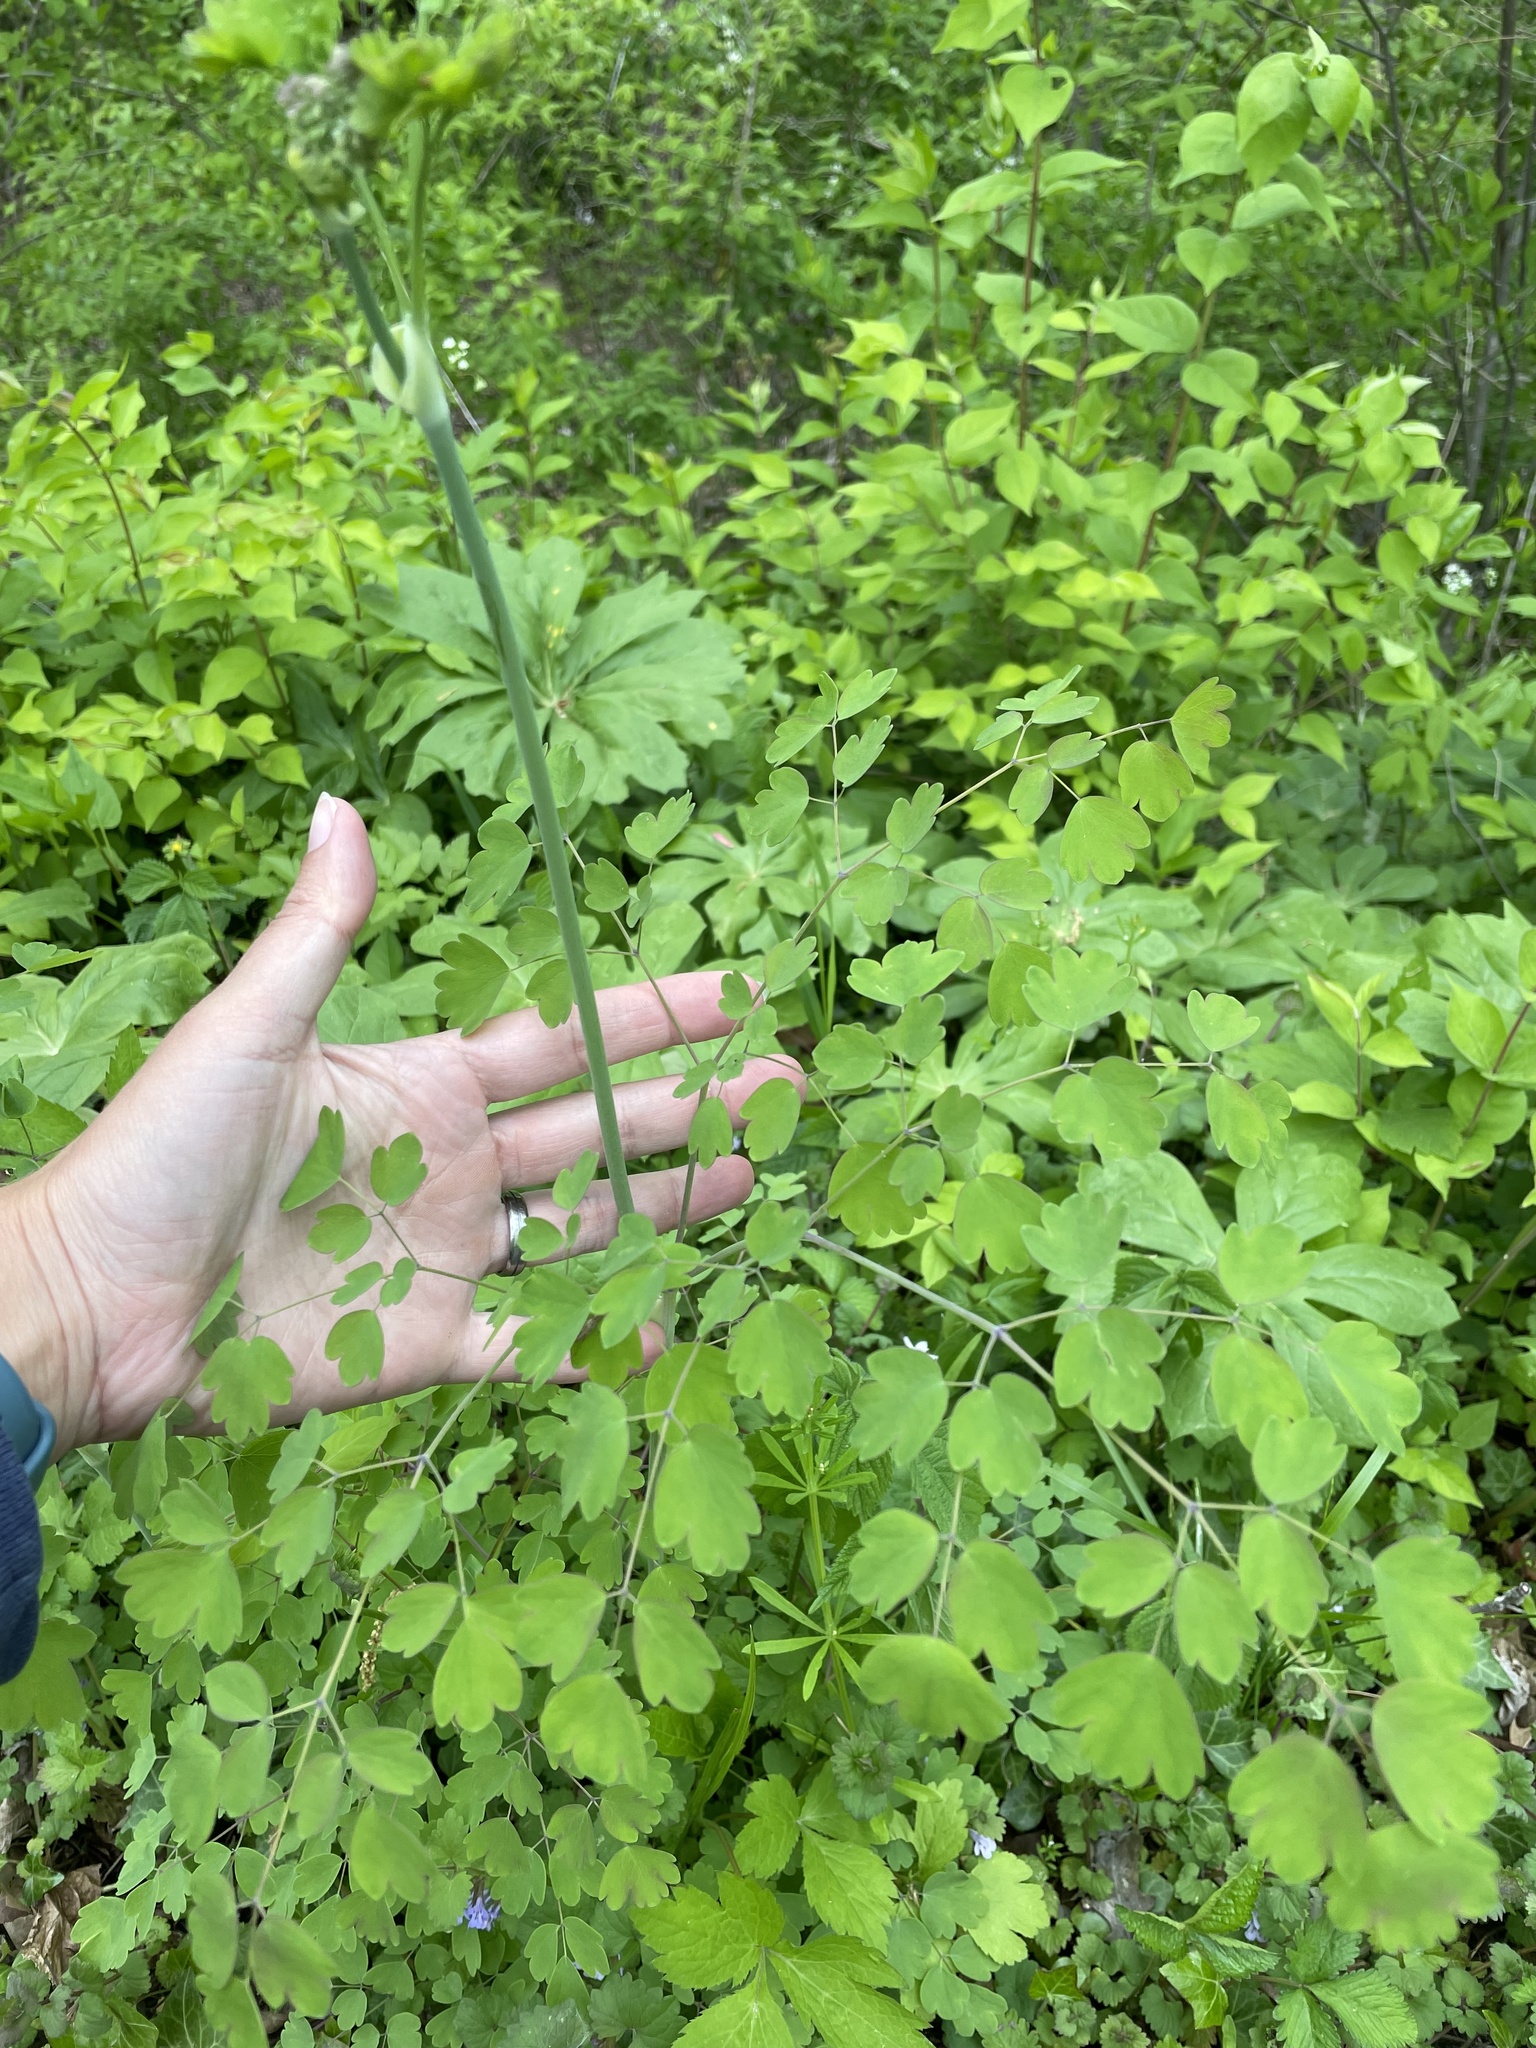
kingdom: Plantae
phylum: Tracheophyta
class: Magnoliopsida
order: Ranunculales
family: Ranunculaceae
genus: Thalictrum
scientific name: Thalictrum dioicum
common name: Early meadow-rue
